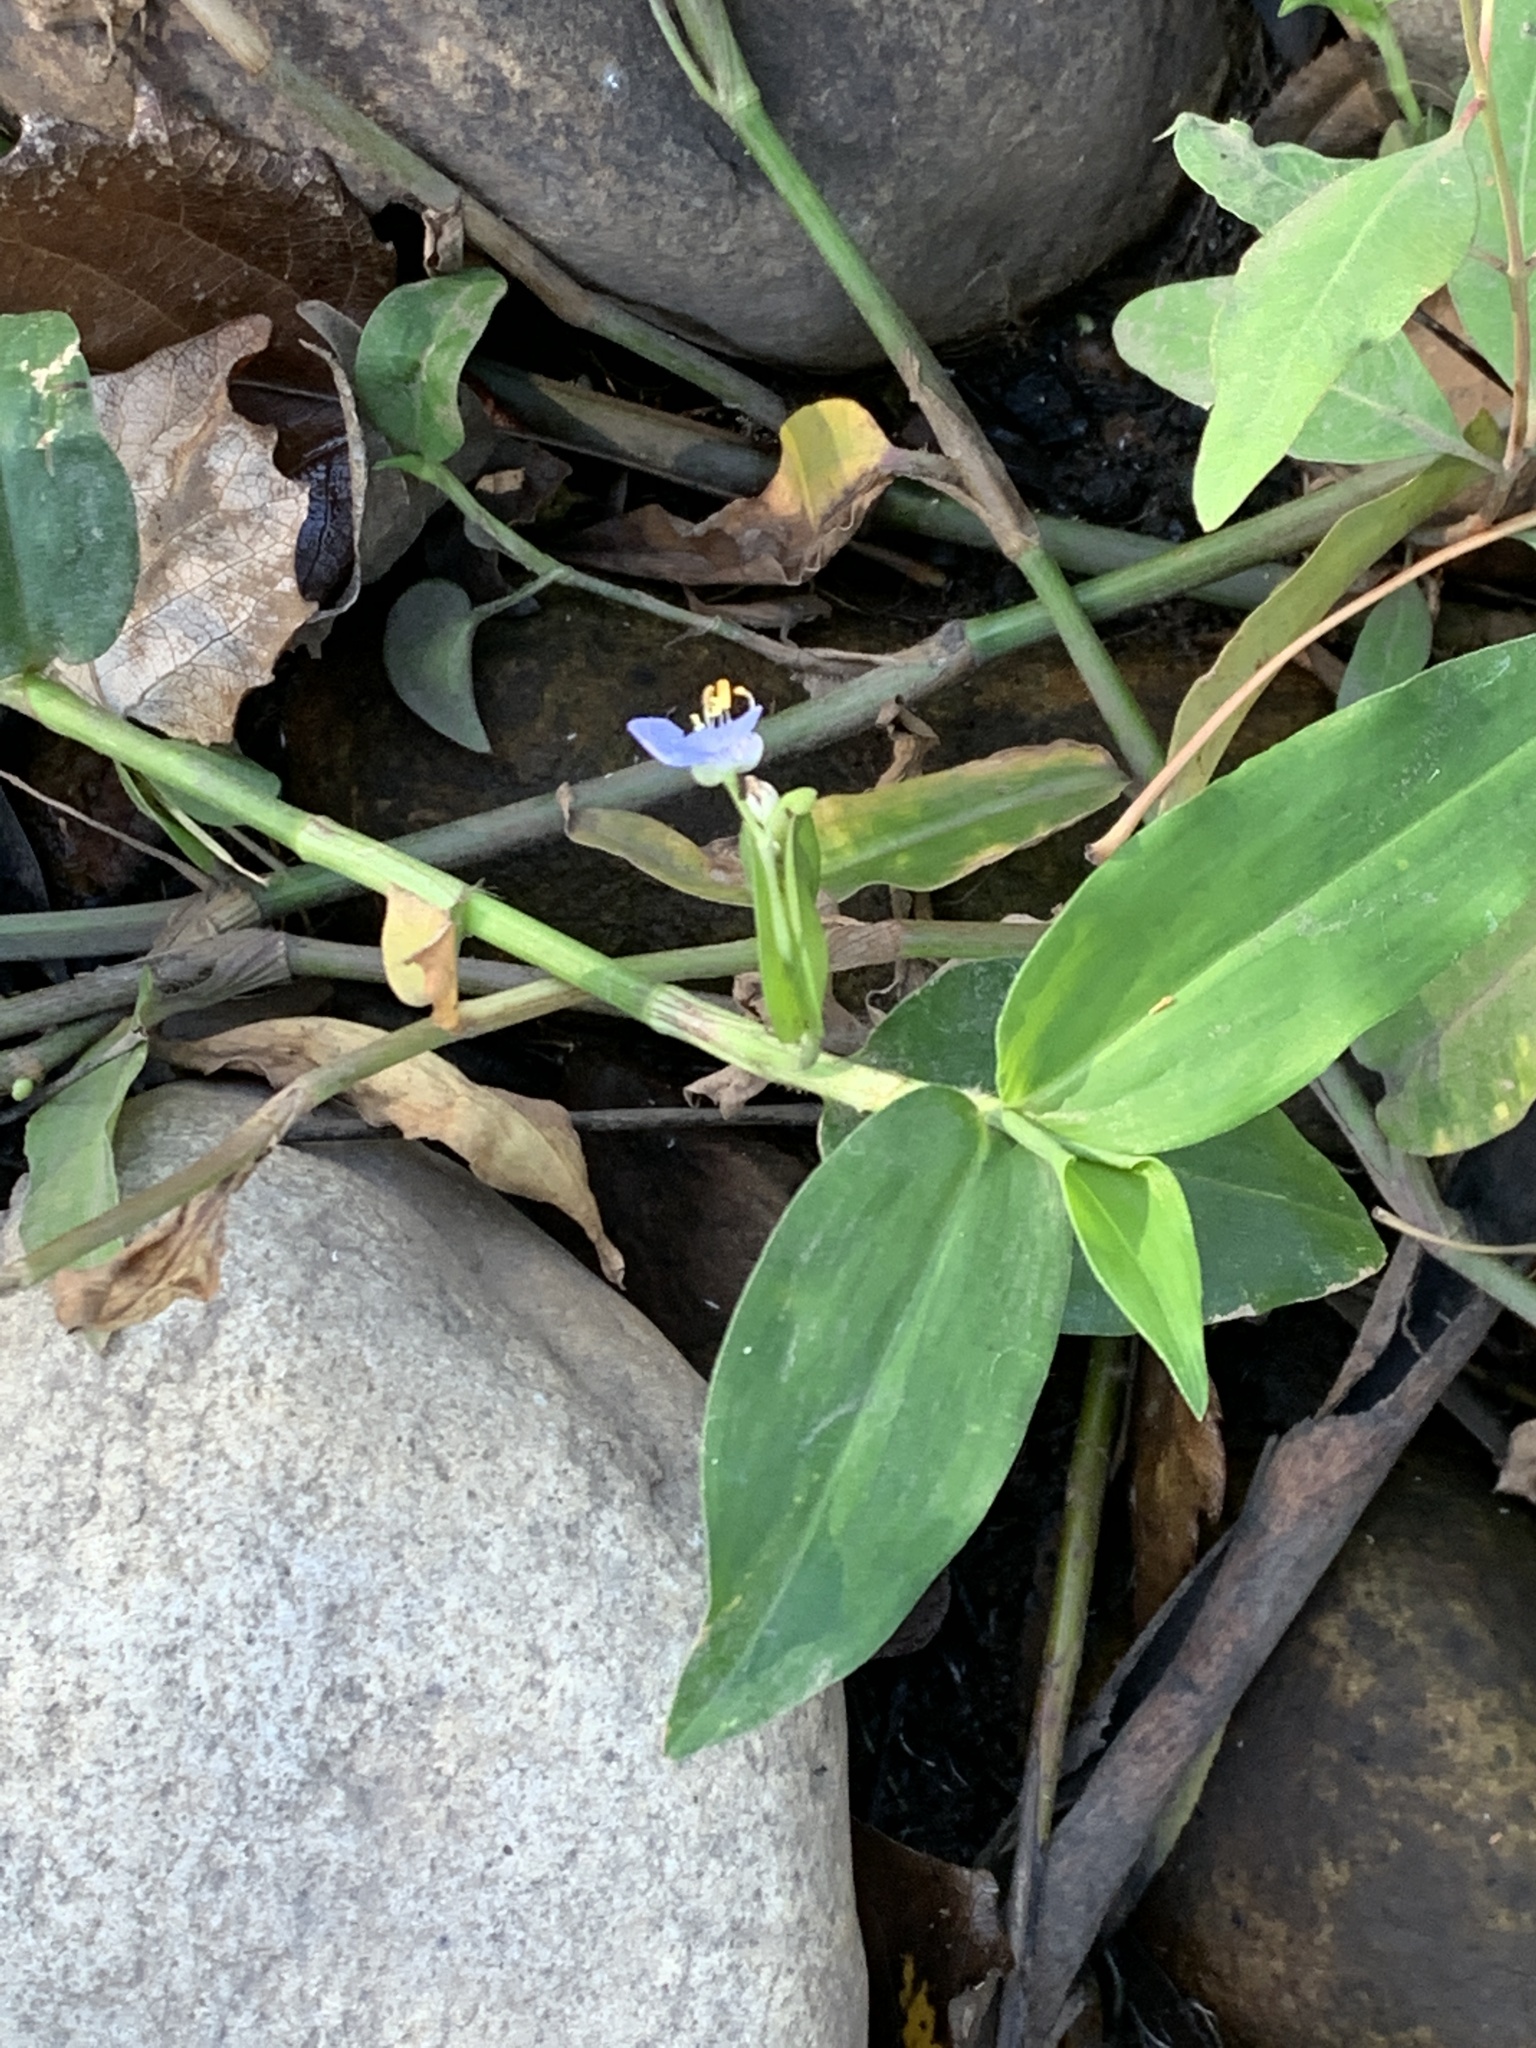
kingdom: Plantae
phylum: Tracheophyta
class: Liliopsida
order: Commelinales
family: Commelinaceae
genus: Commelina
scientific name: Commelina diffusa
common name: Climbing dayflower
